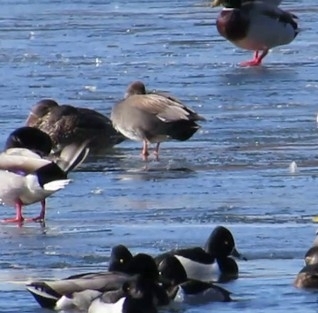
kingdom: Animalia
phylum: Chordata
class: Aves
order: Anseriformes
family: Anatidae
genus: Mareca
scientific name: Mareca strepera
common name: Gadwall
